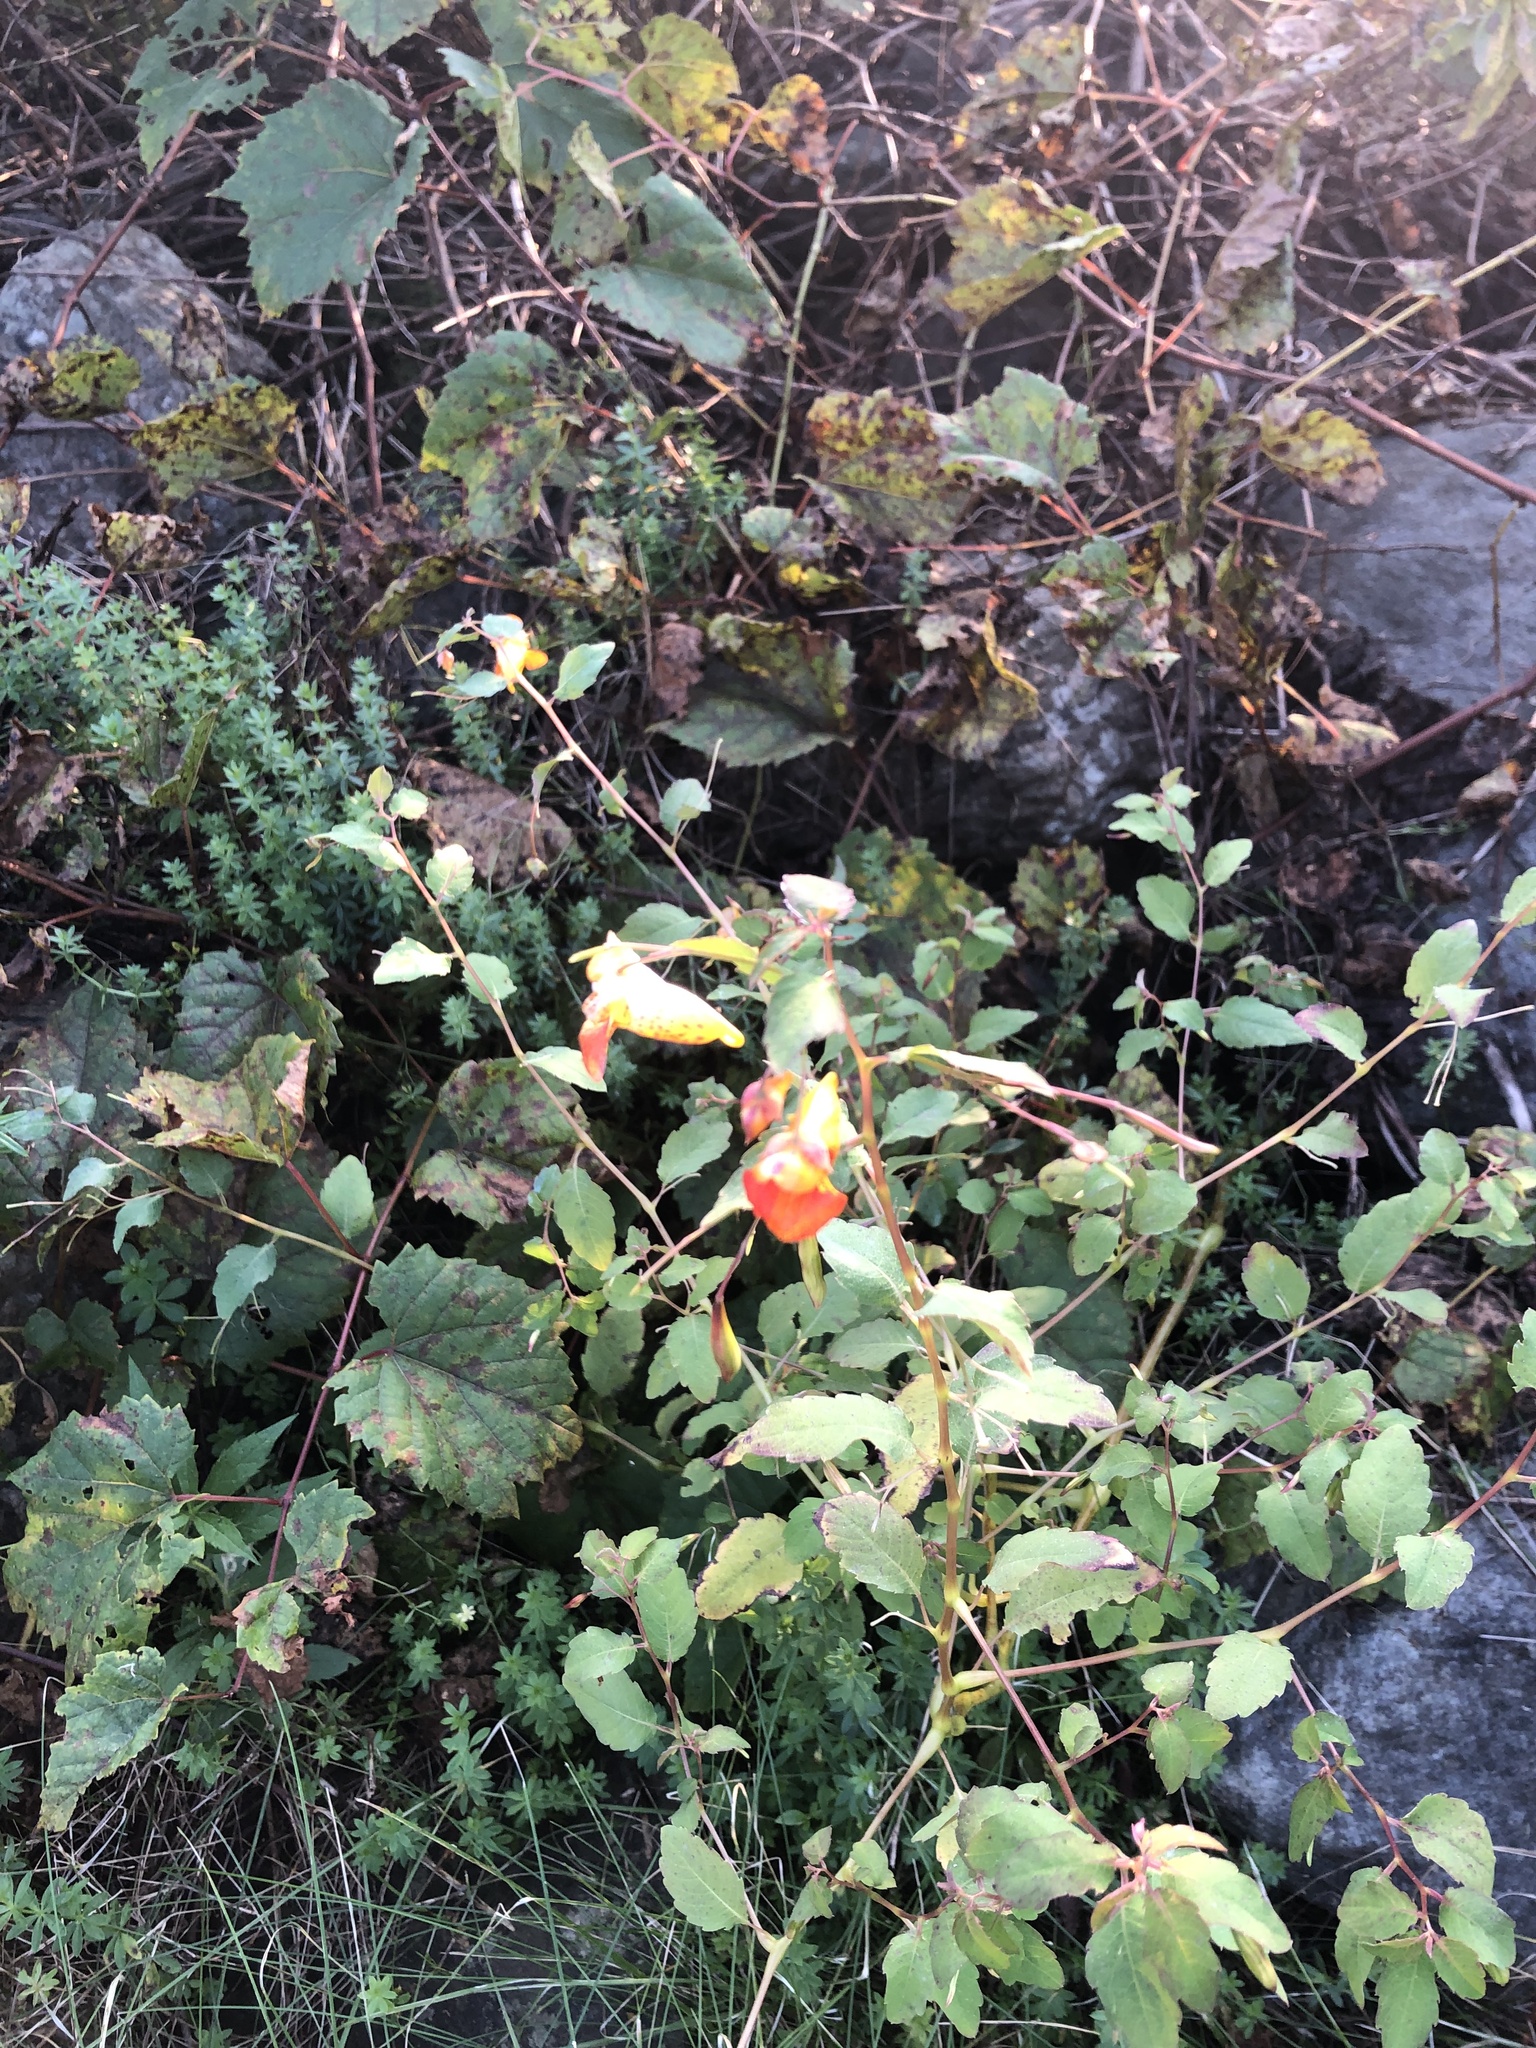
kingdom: Plantae
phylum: Tracheophyta
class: Magnoliopsida
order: Ericales
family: Balsaminaceae
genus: Impatiens
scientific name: Impatiens capensis
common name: Orange balsam
